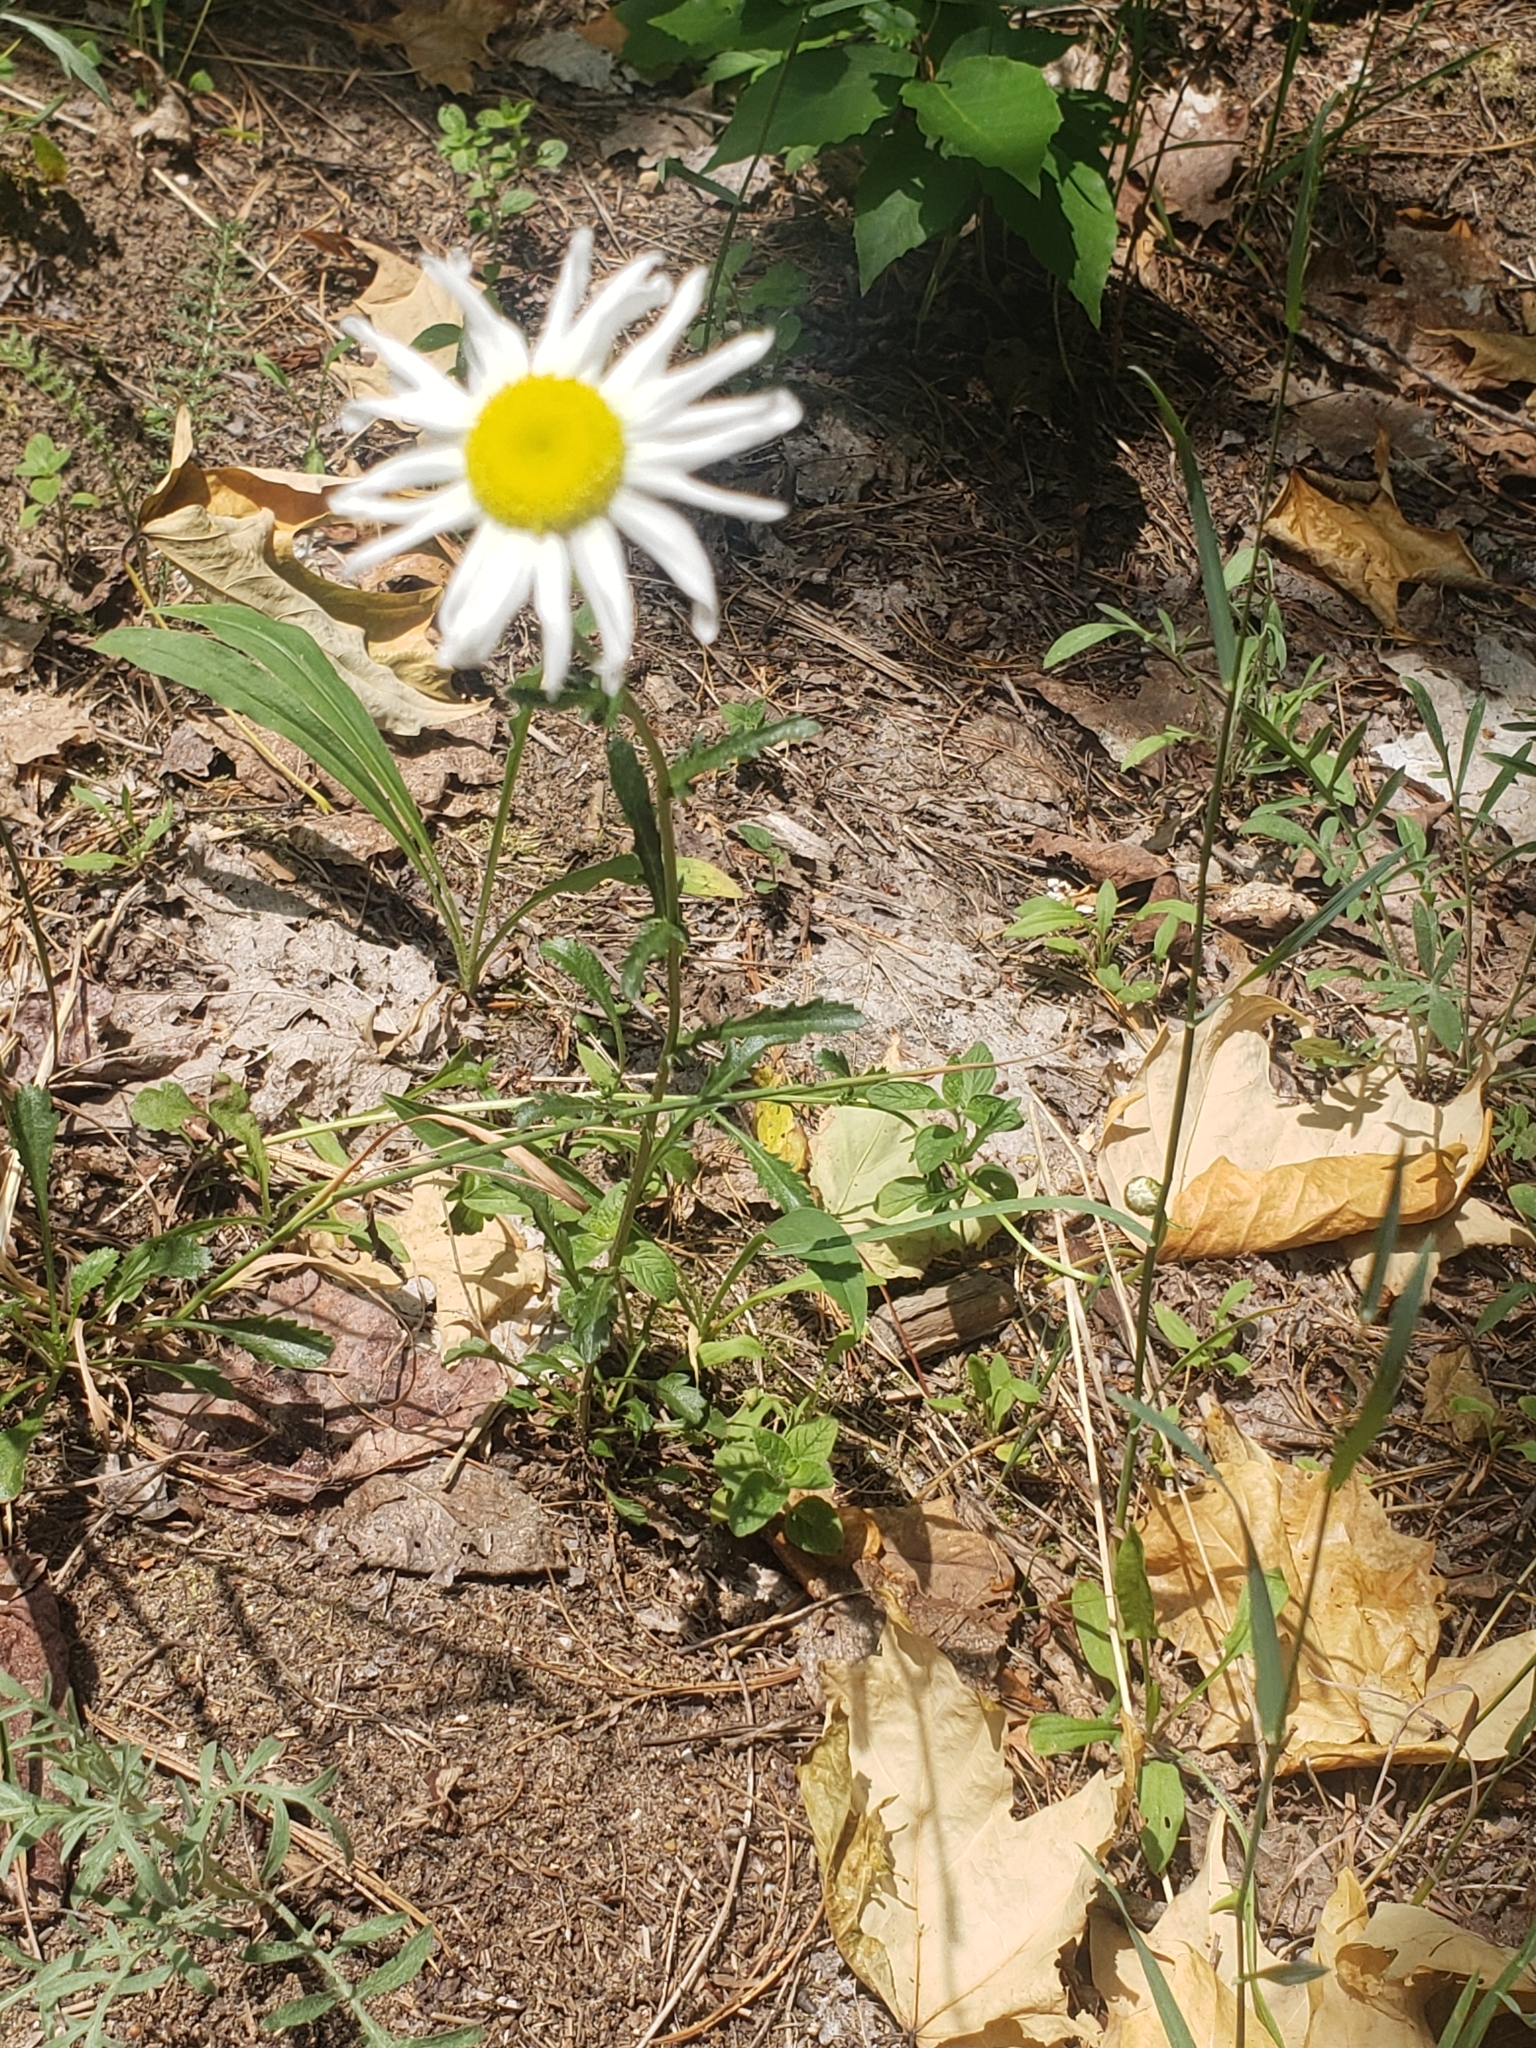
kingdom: Plantae
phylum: Tracheophyta
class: Magnoliopsida
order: Asterales
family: Asteraceae
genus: Leucanthemum
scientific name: Leucanthemum vulgare
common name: Oxeye daisy
